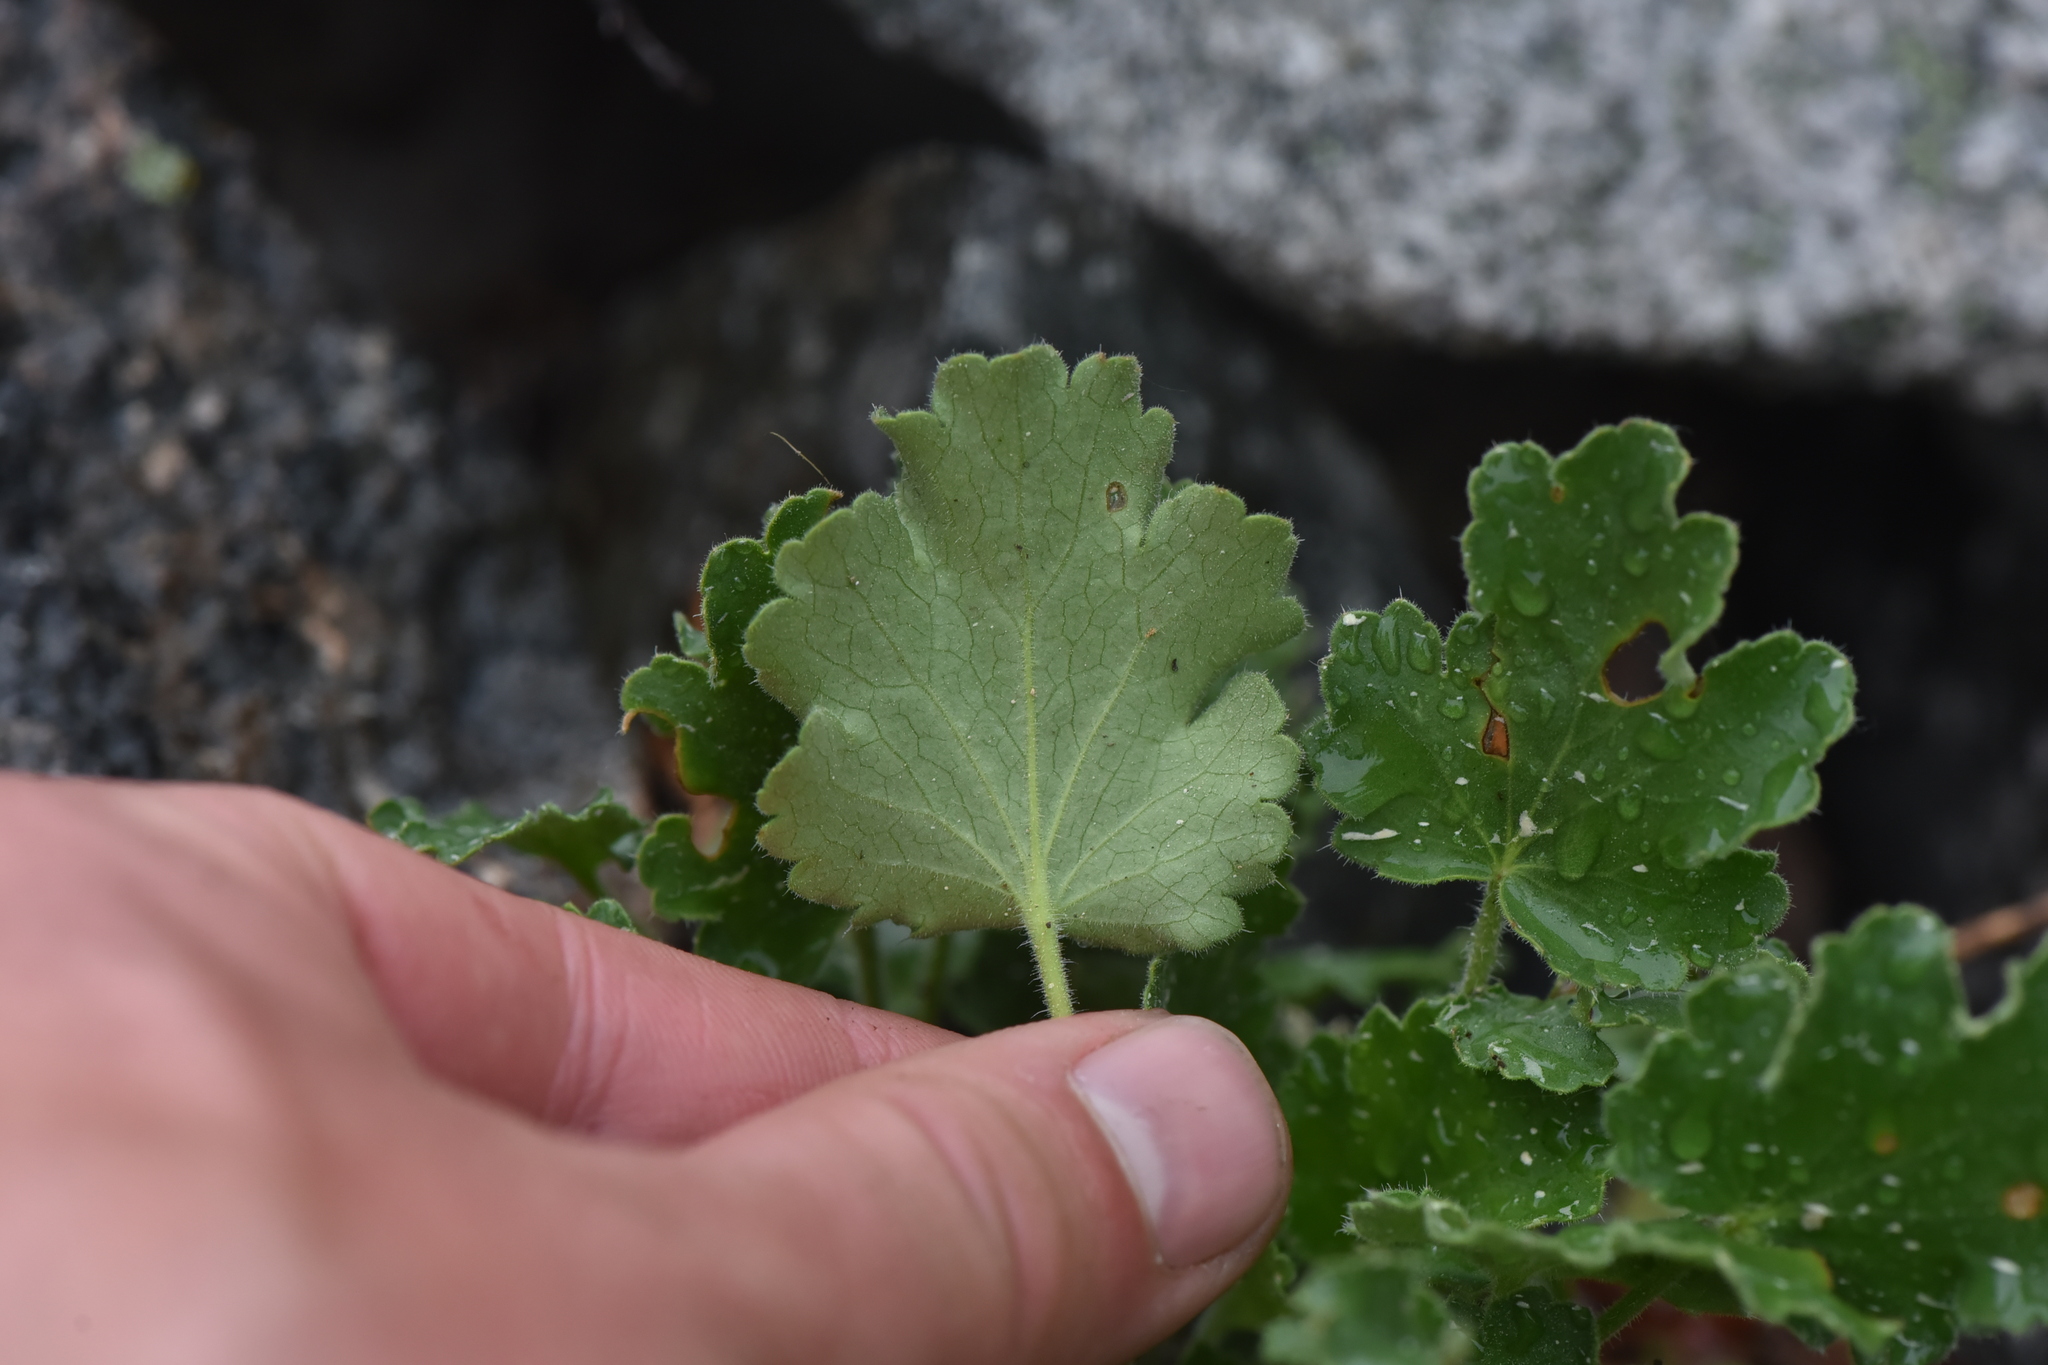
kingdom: Plantae
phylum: Tracheophyta
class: Magnoliopsida
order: Saxifragales
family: Saxifragaceae
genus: Heuchera
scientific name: Heuchera cylindrica
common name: Mat alumroot
